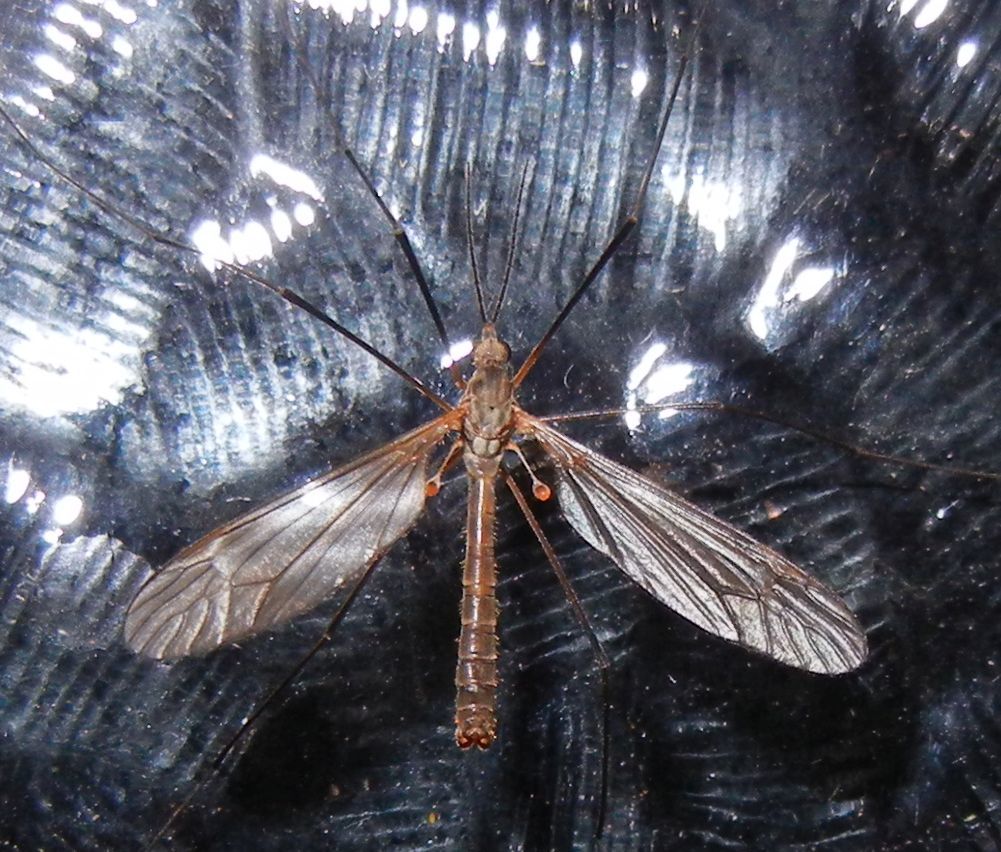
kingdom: Animalia
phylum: Arthropoda
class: Insecta
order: Diptera
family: Tipulidae
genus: Tipula
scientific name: Tipula pagana
